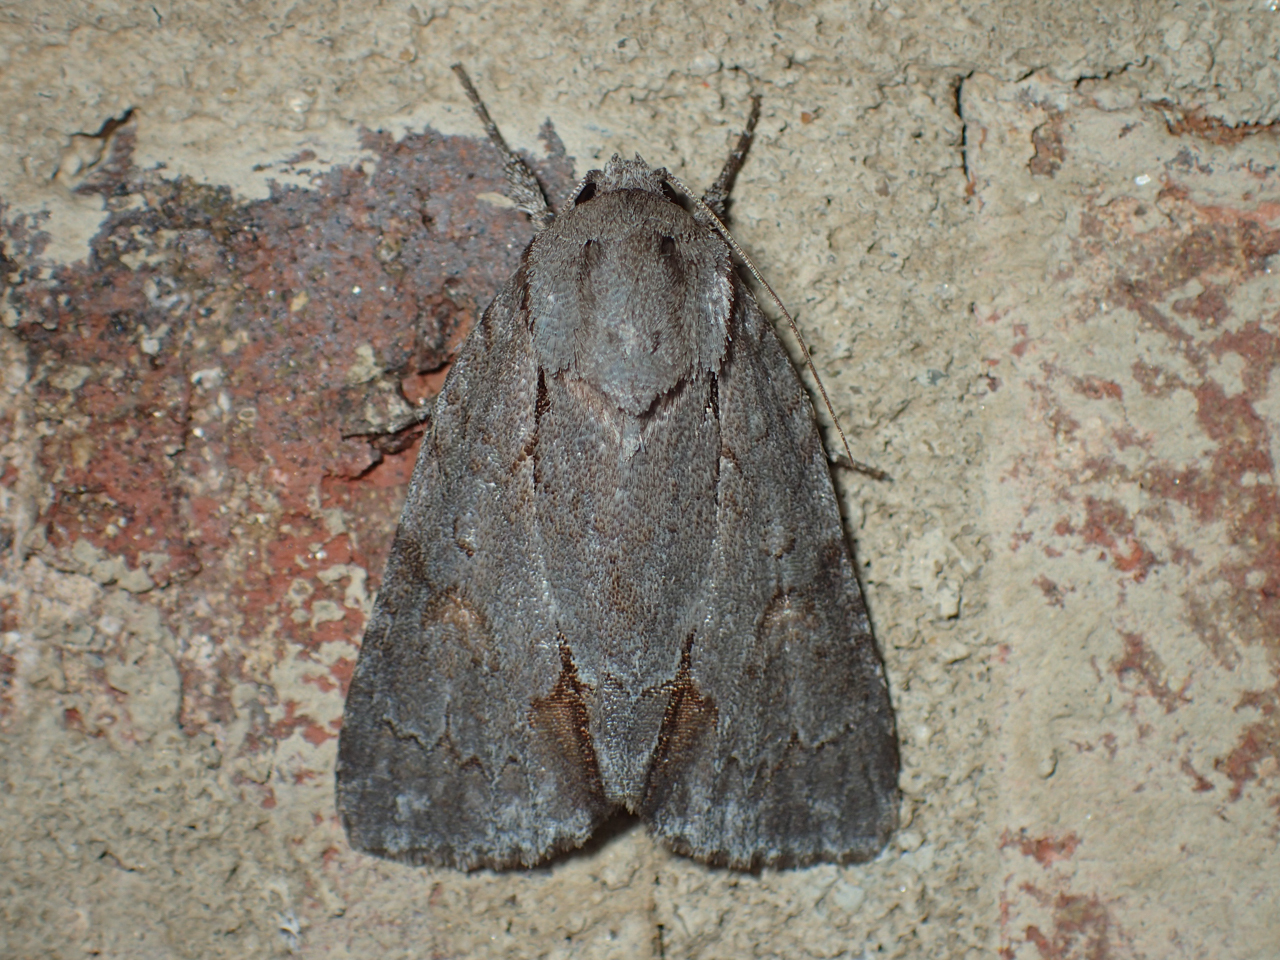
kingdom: Animalia
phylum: Arthropoda
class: Insecta
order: Lepidoptera
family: Noctuidae
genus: Acronicta
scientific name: Acronicta tritona
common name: Triton dagger
